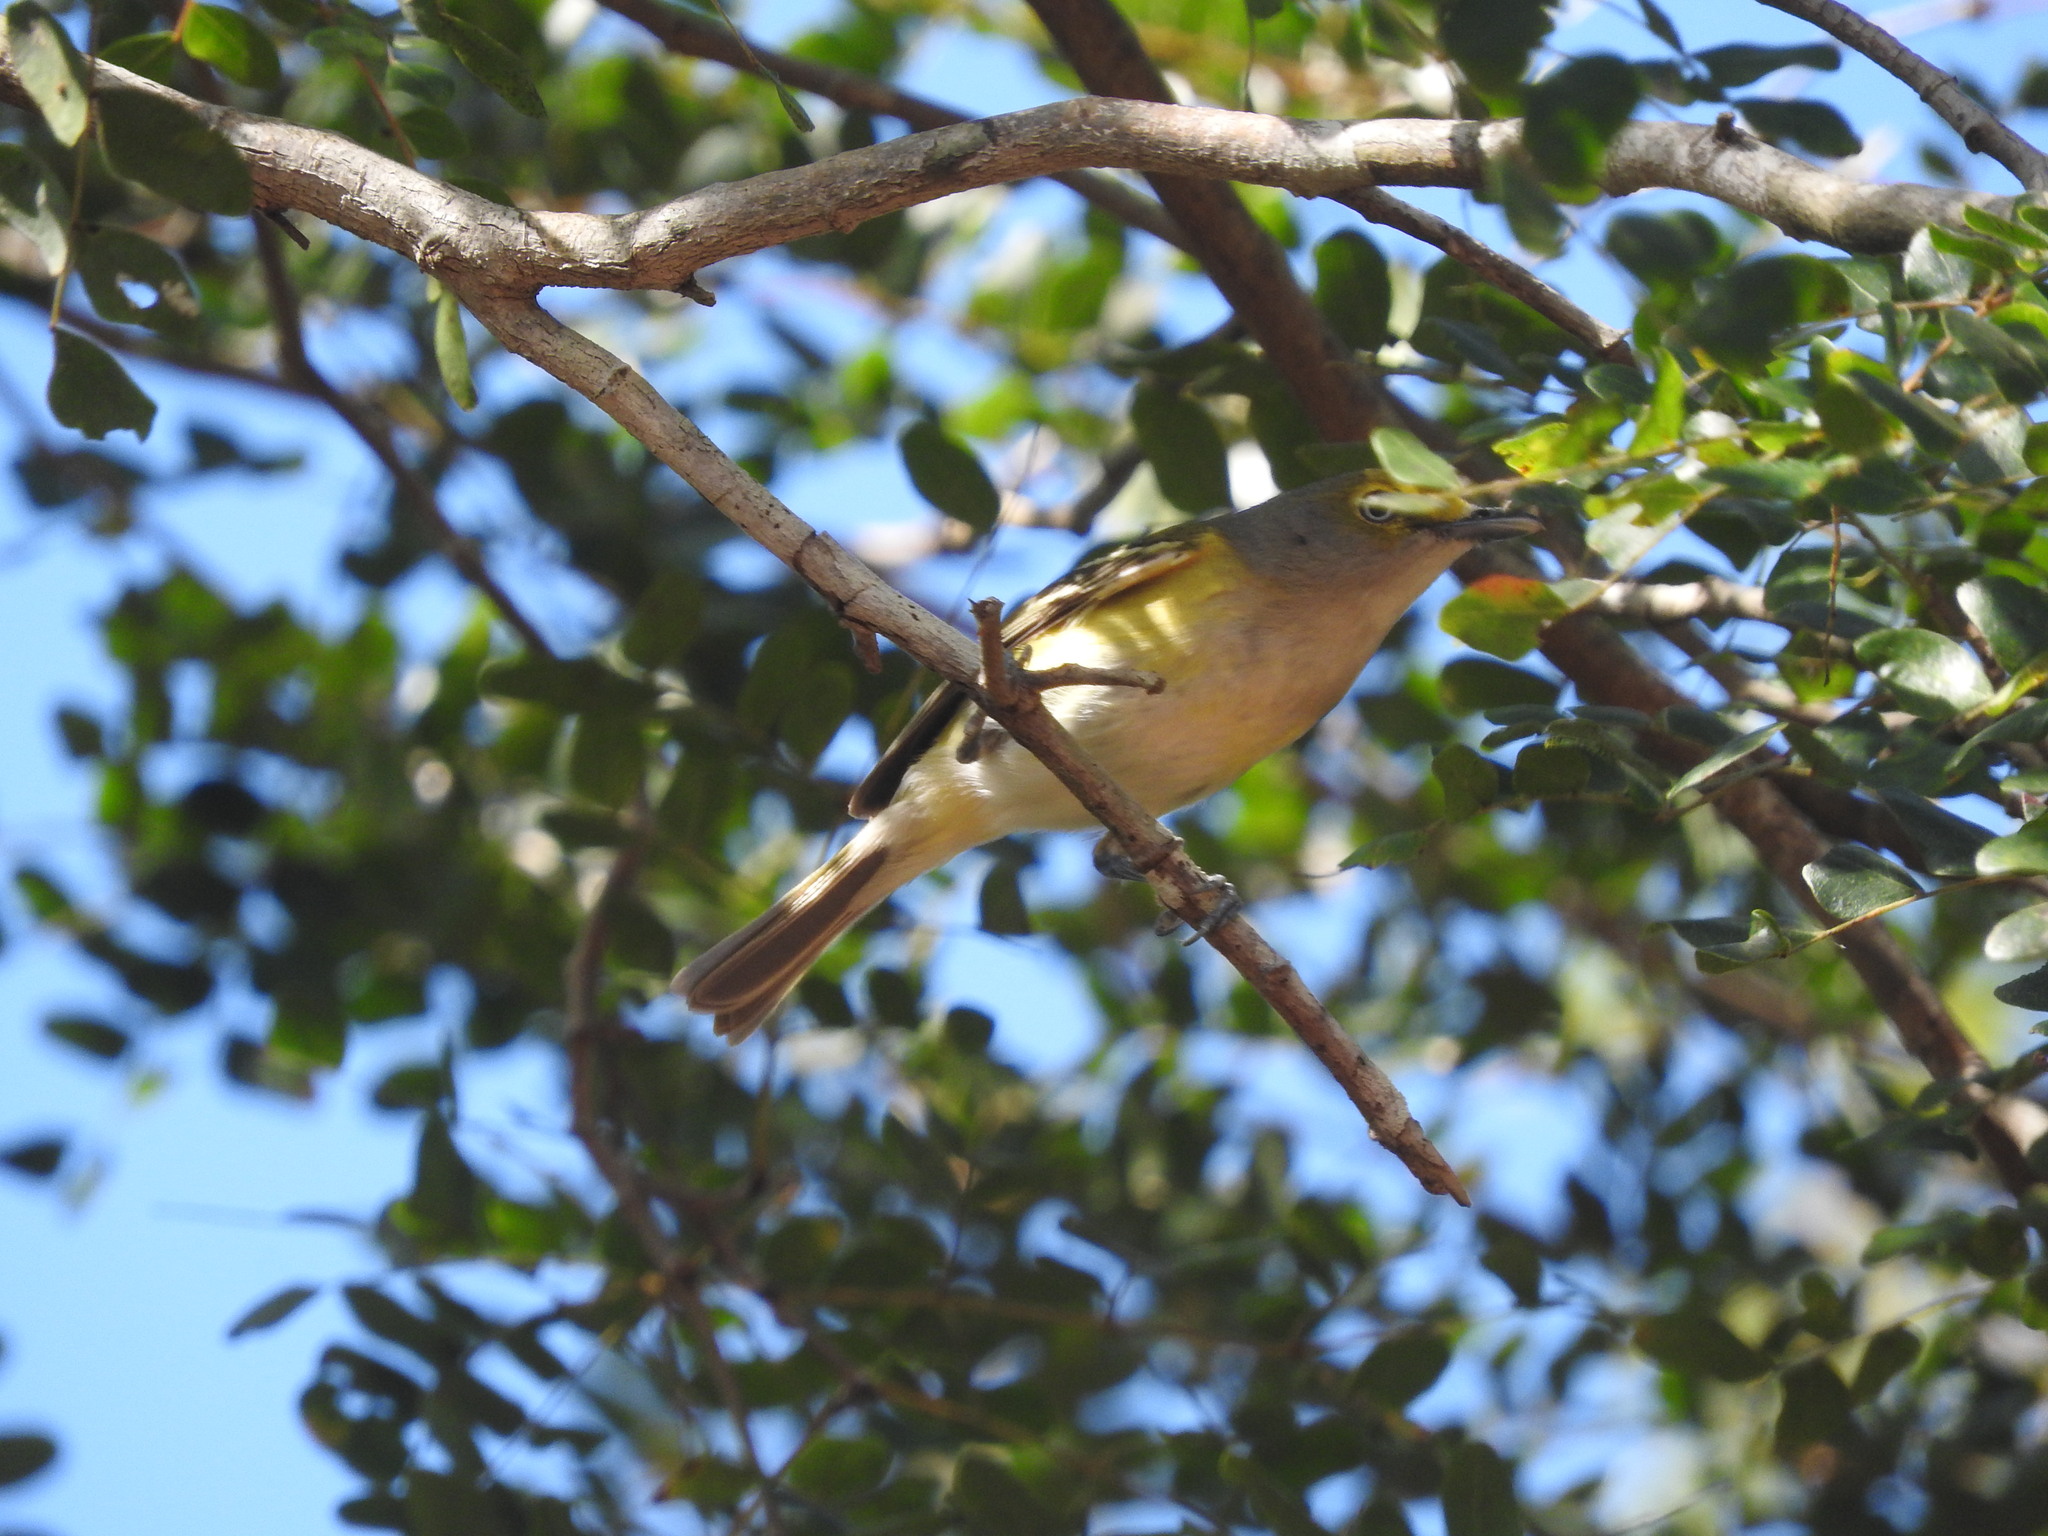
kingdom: Animalia
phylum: Chordata
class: Aves
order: Passeriformes
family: Vireonidae
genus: Vireo
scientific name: Vireo griseus
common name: White-eyed vireo
